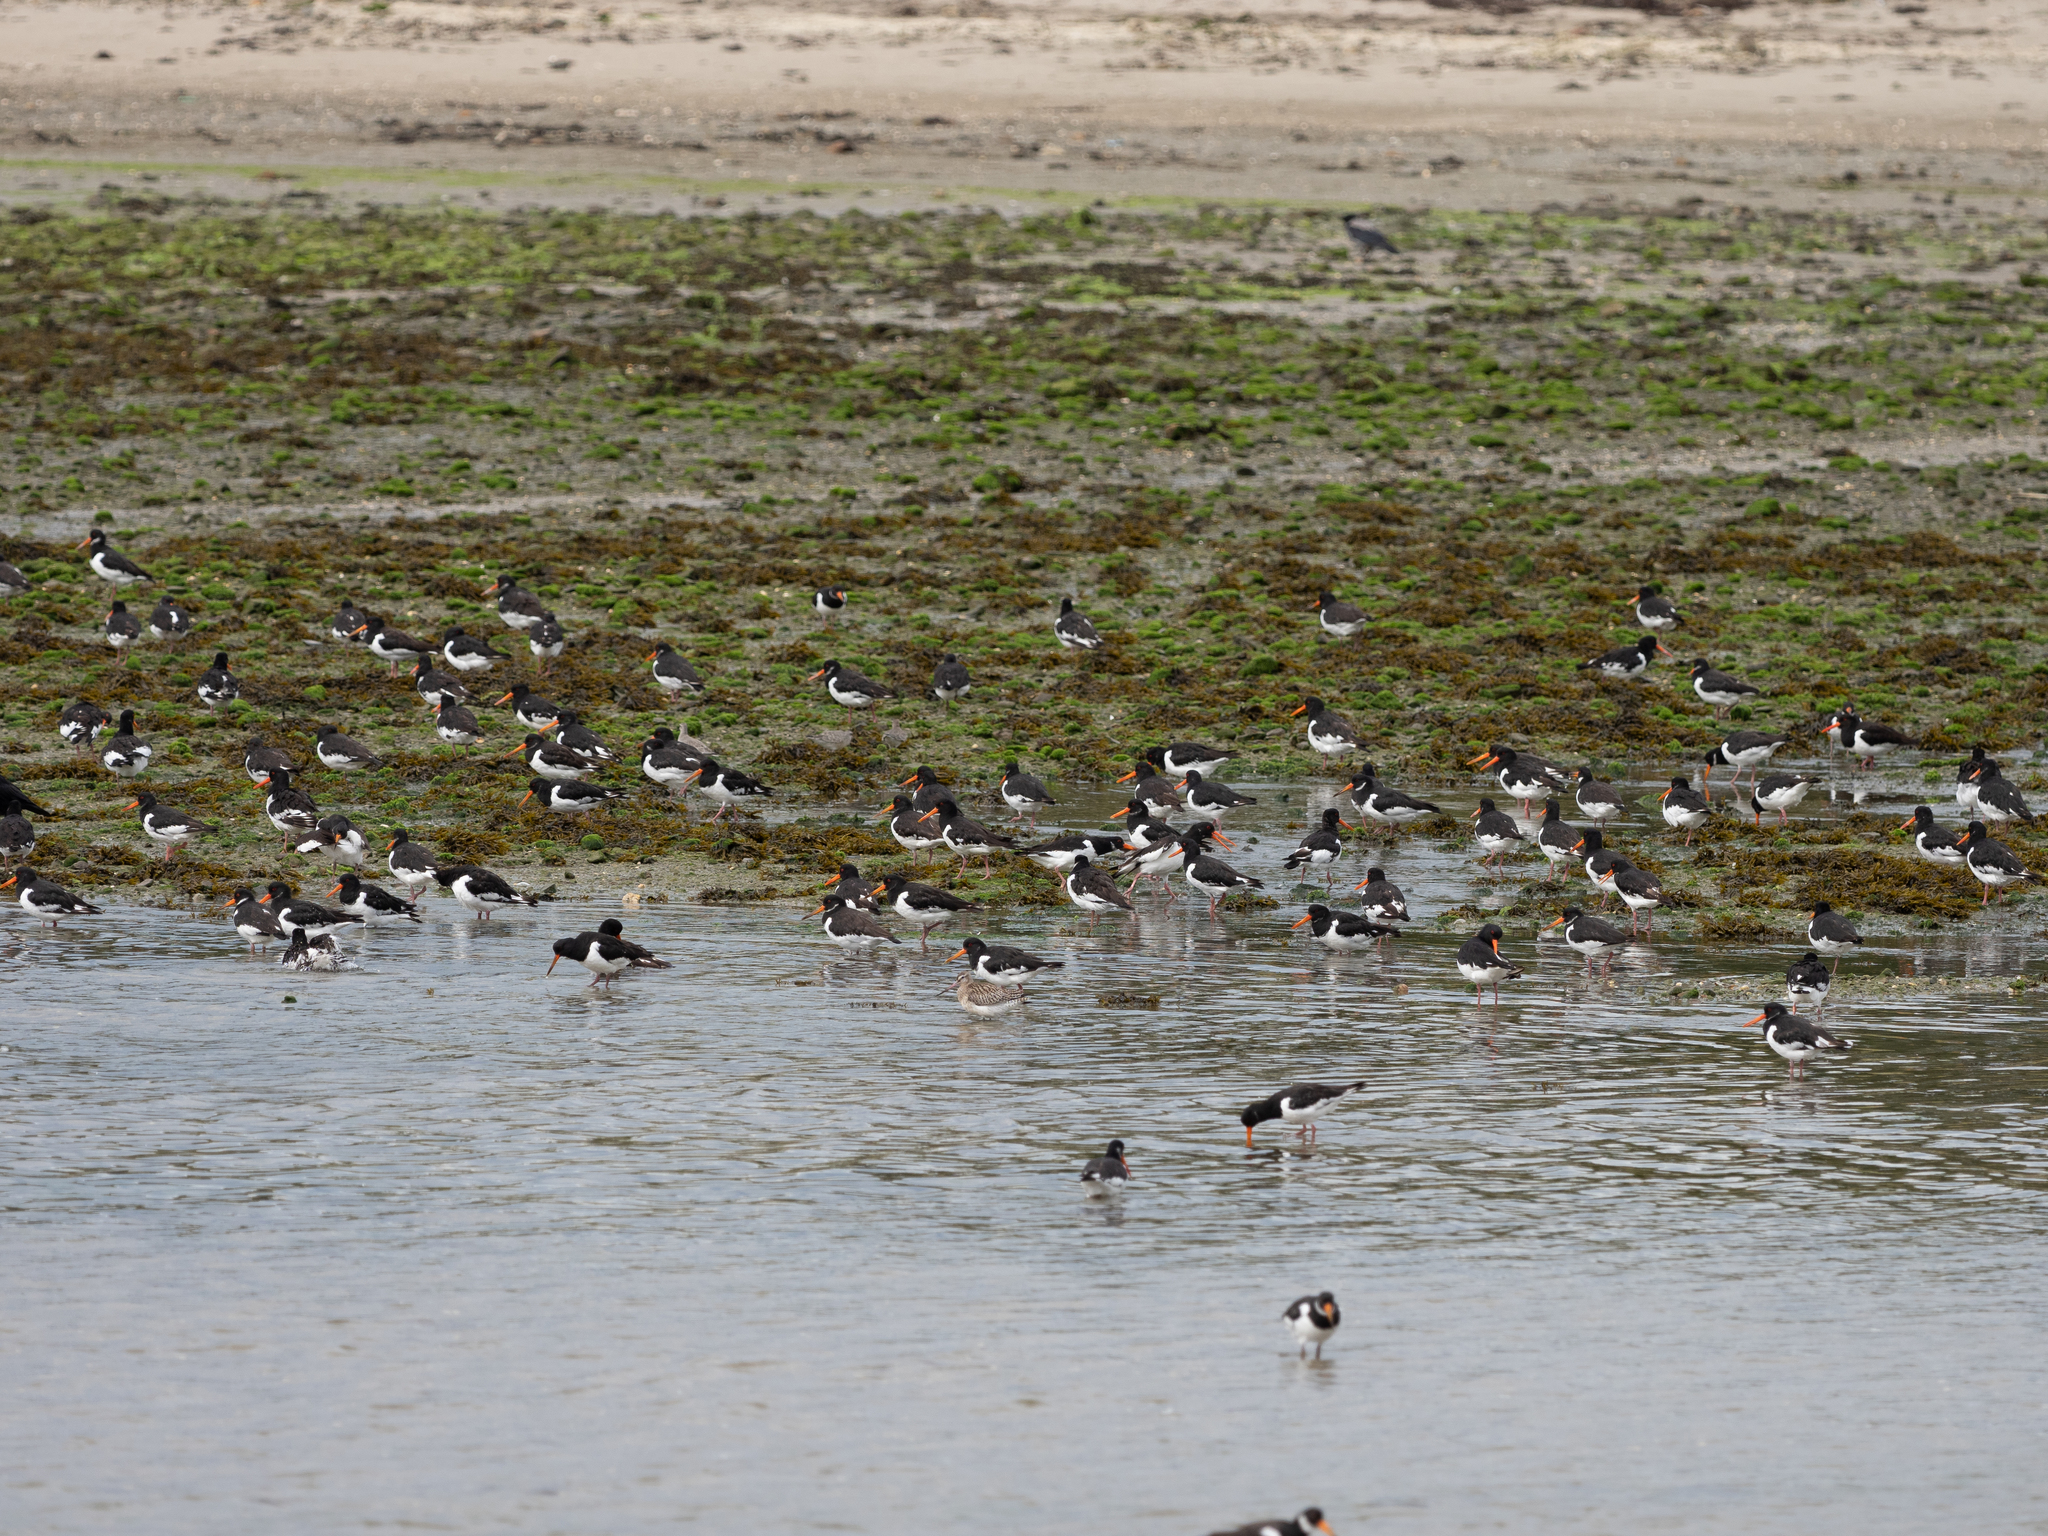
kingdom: Animalia
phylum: Chordata
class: Aves
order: Charadriiformes
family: Haematopodidae
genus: Haematopus
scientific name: Haematopus ostralegus
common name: Eurasian oystercatcher
